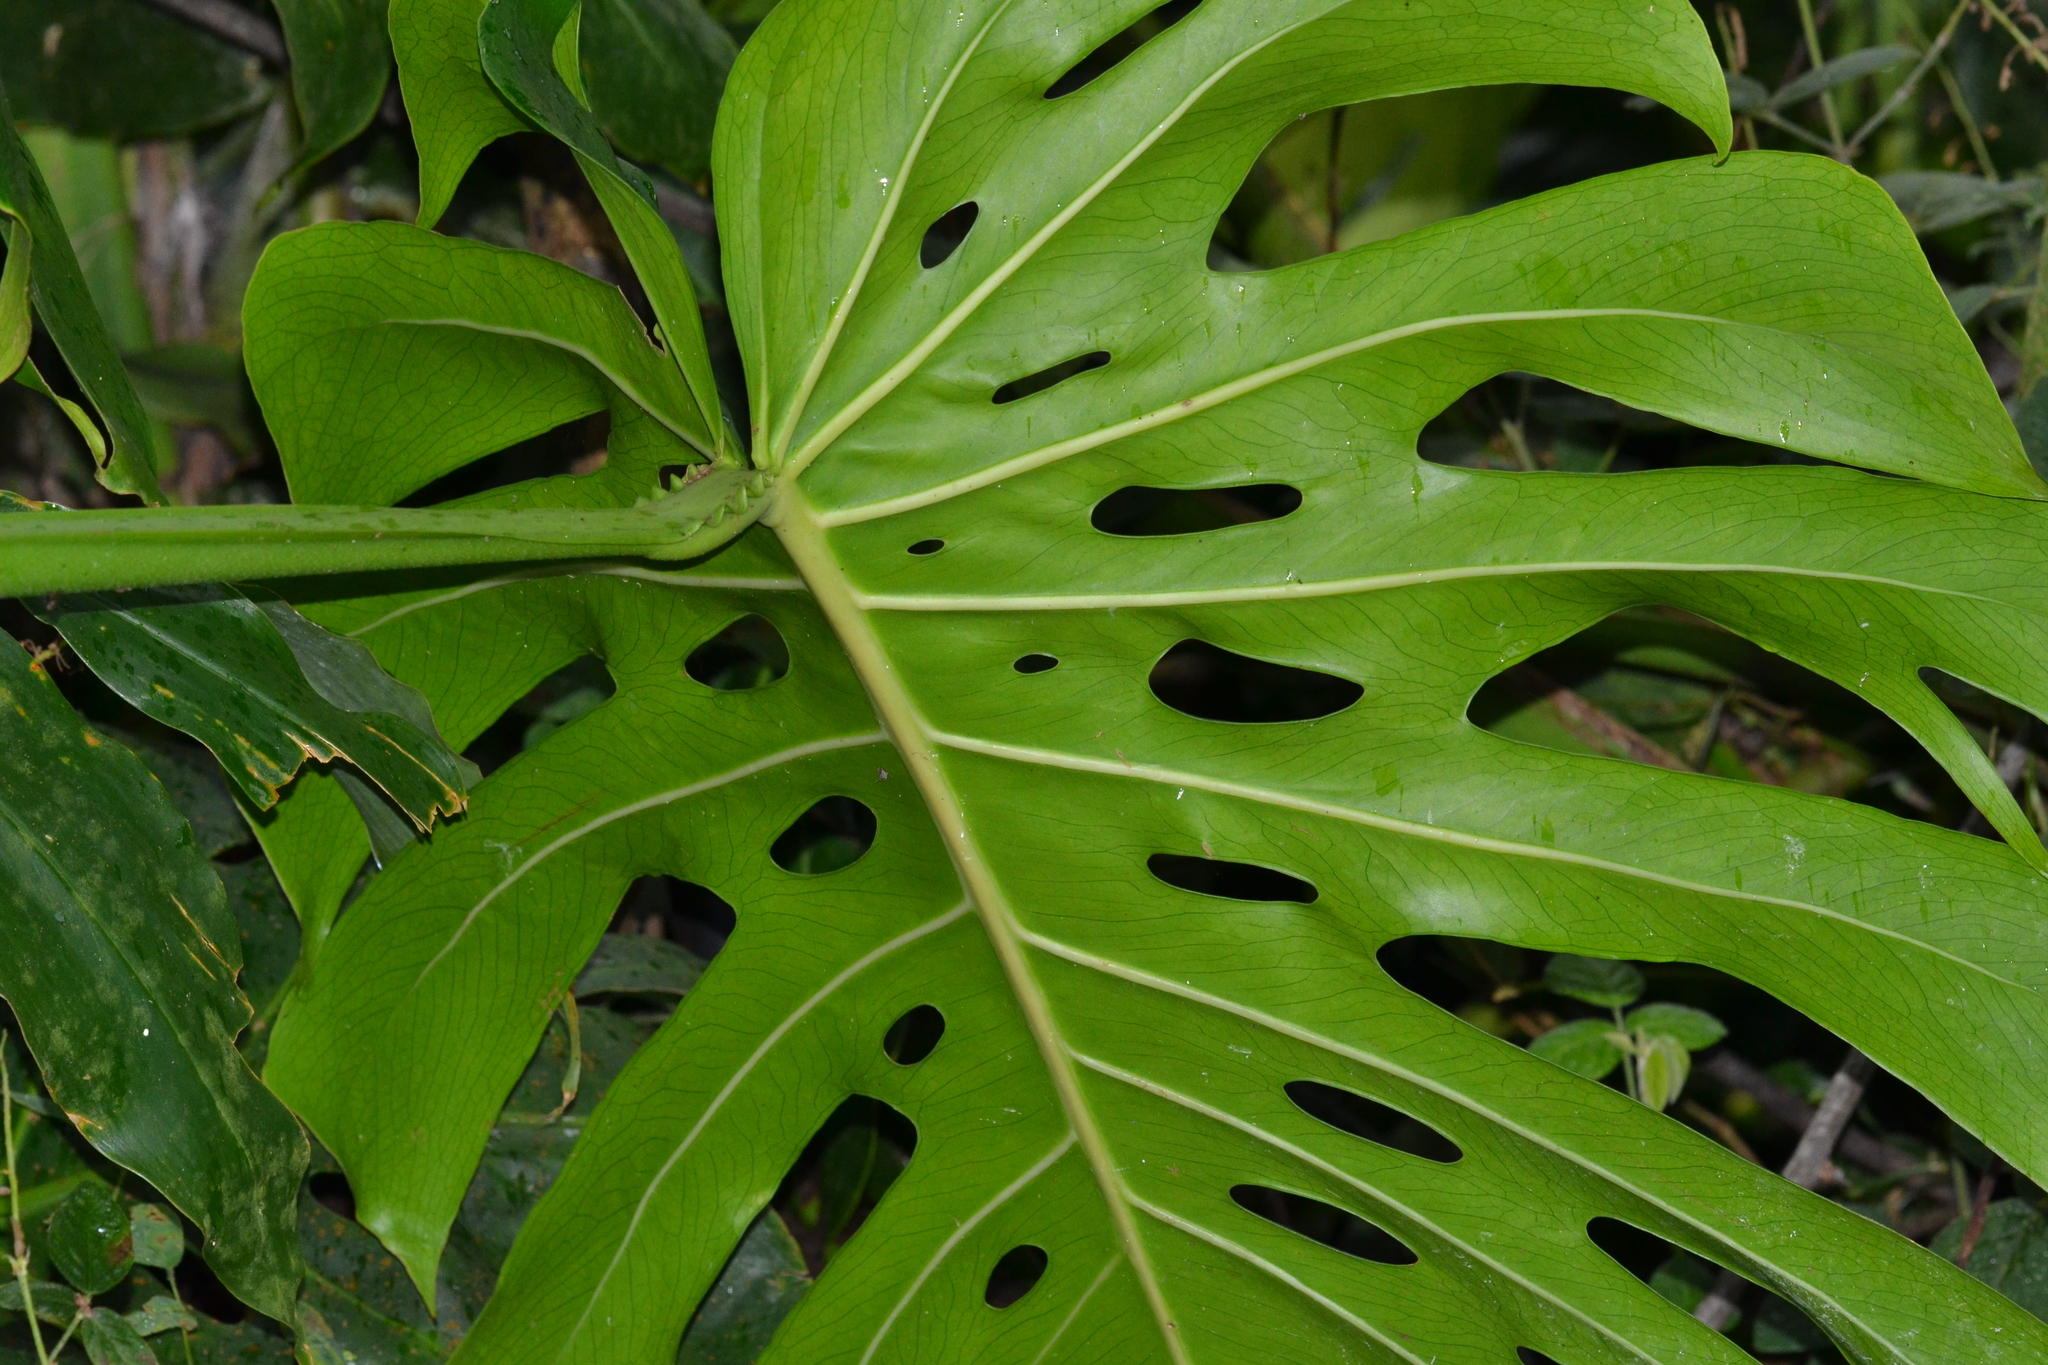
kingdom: Plantae
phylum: Tracheophyta
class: Liliopsida
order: Alismatales
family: Araceae
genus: Monstera
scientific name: Monstera deliciosa
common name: Cut-leaf-philodendron
